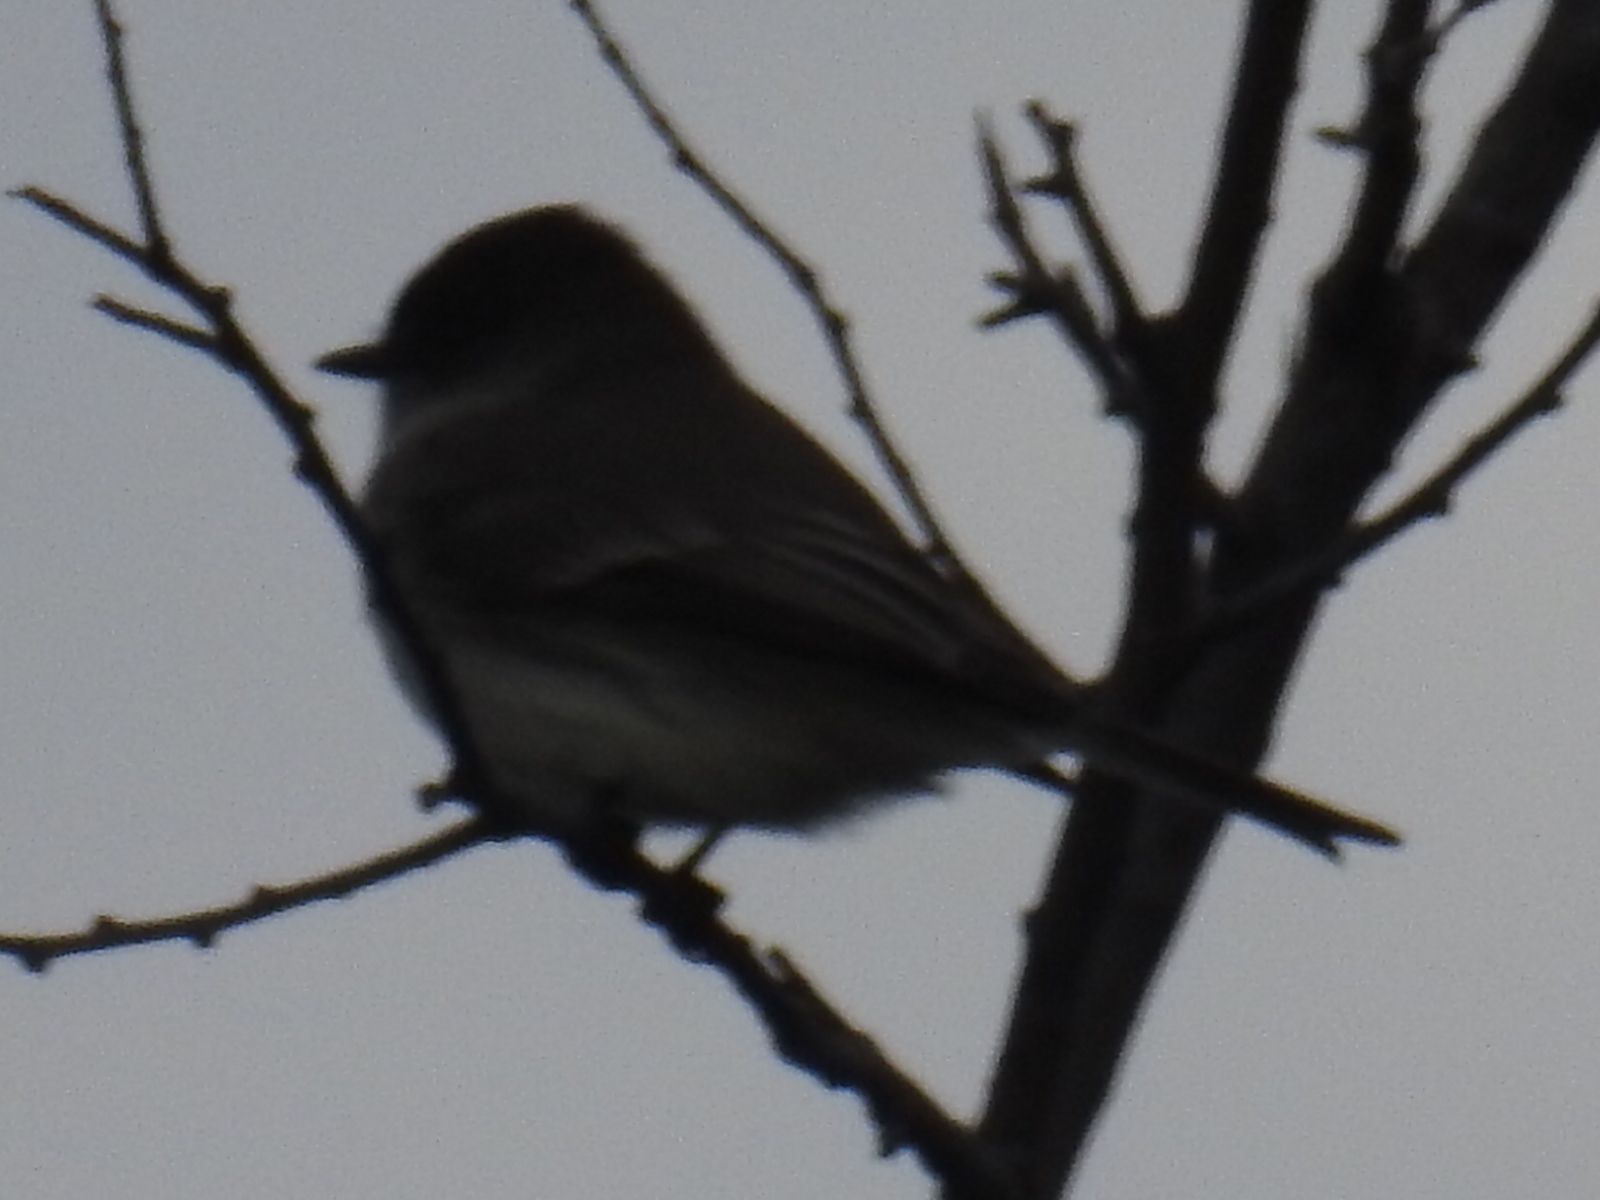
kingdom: Animalia
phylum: Chordata
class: Aves
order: Passeriformes
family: Tyrannidae
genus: Sayornis
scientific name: Sayornis phoebe
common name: Eastern phoebe
